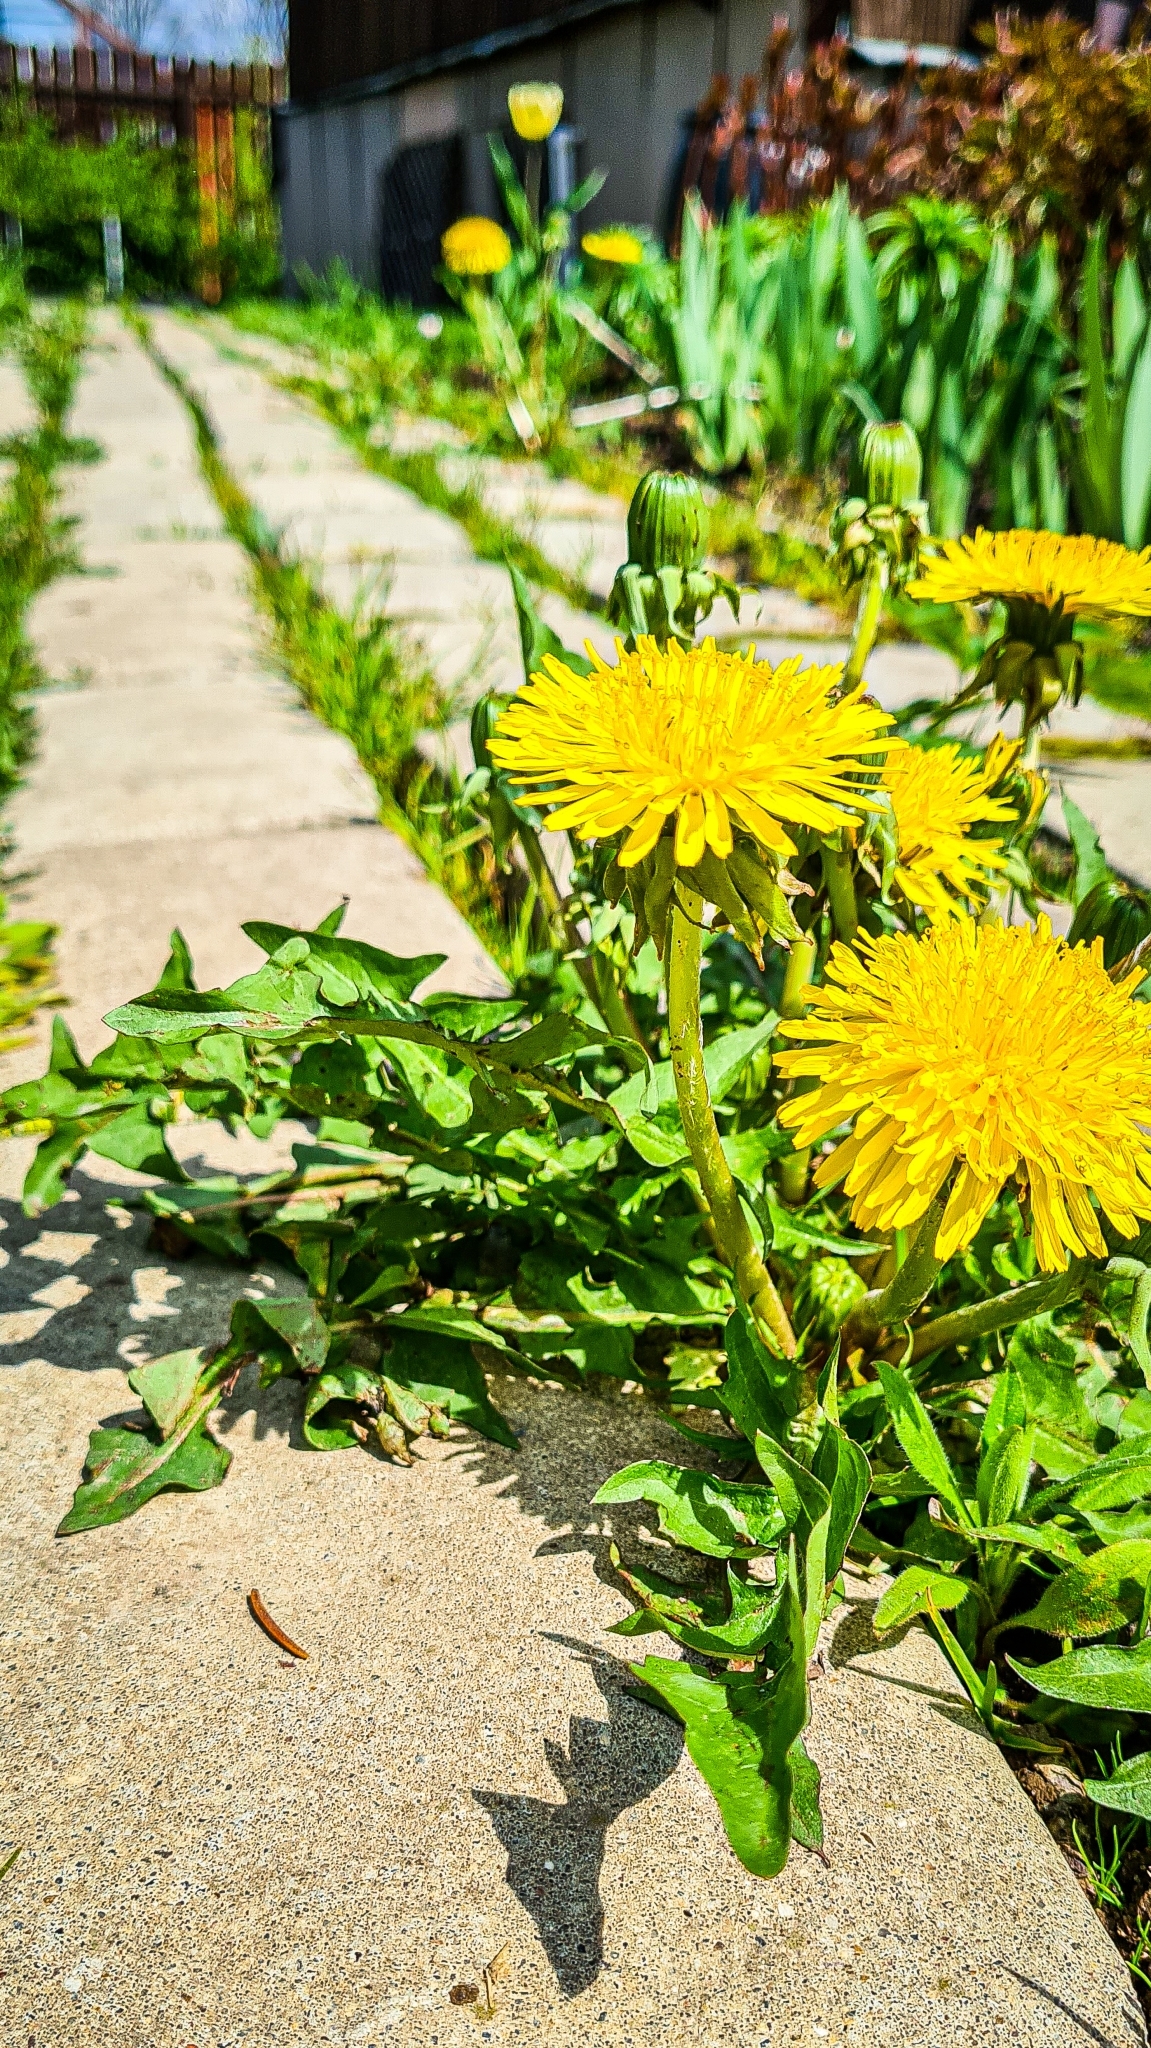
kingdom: Plantae
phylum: Tracheophyta
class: Magnoliopsida
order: Asterales
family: Asteraceae
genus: Taraxacum
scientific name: Taraxacum officinale
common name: Common dandelion
